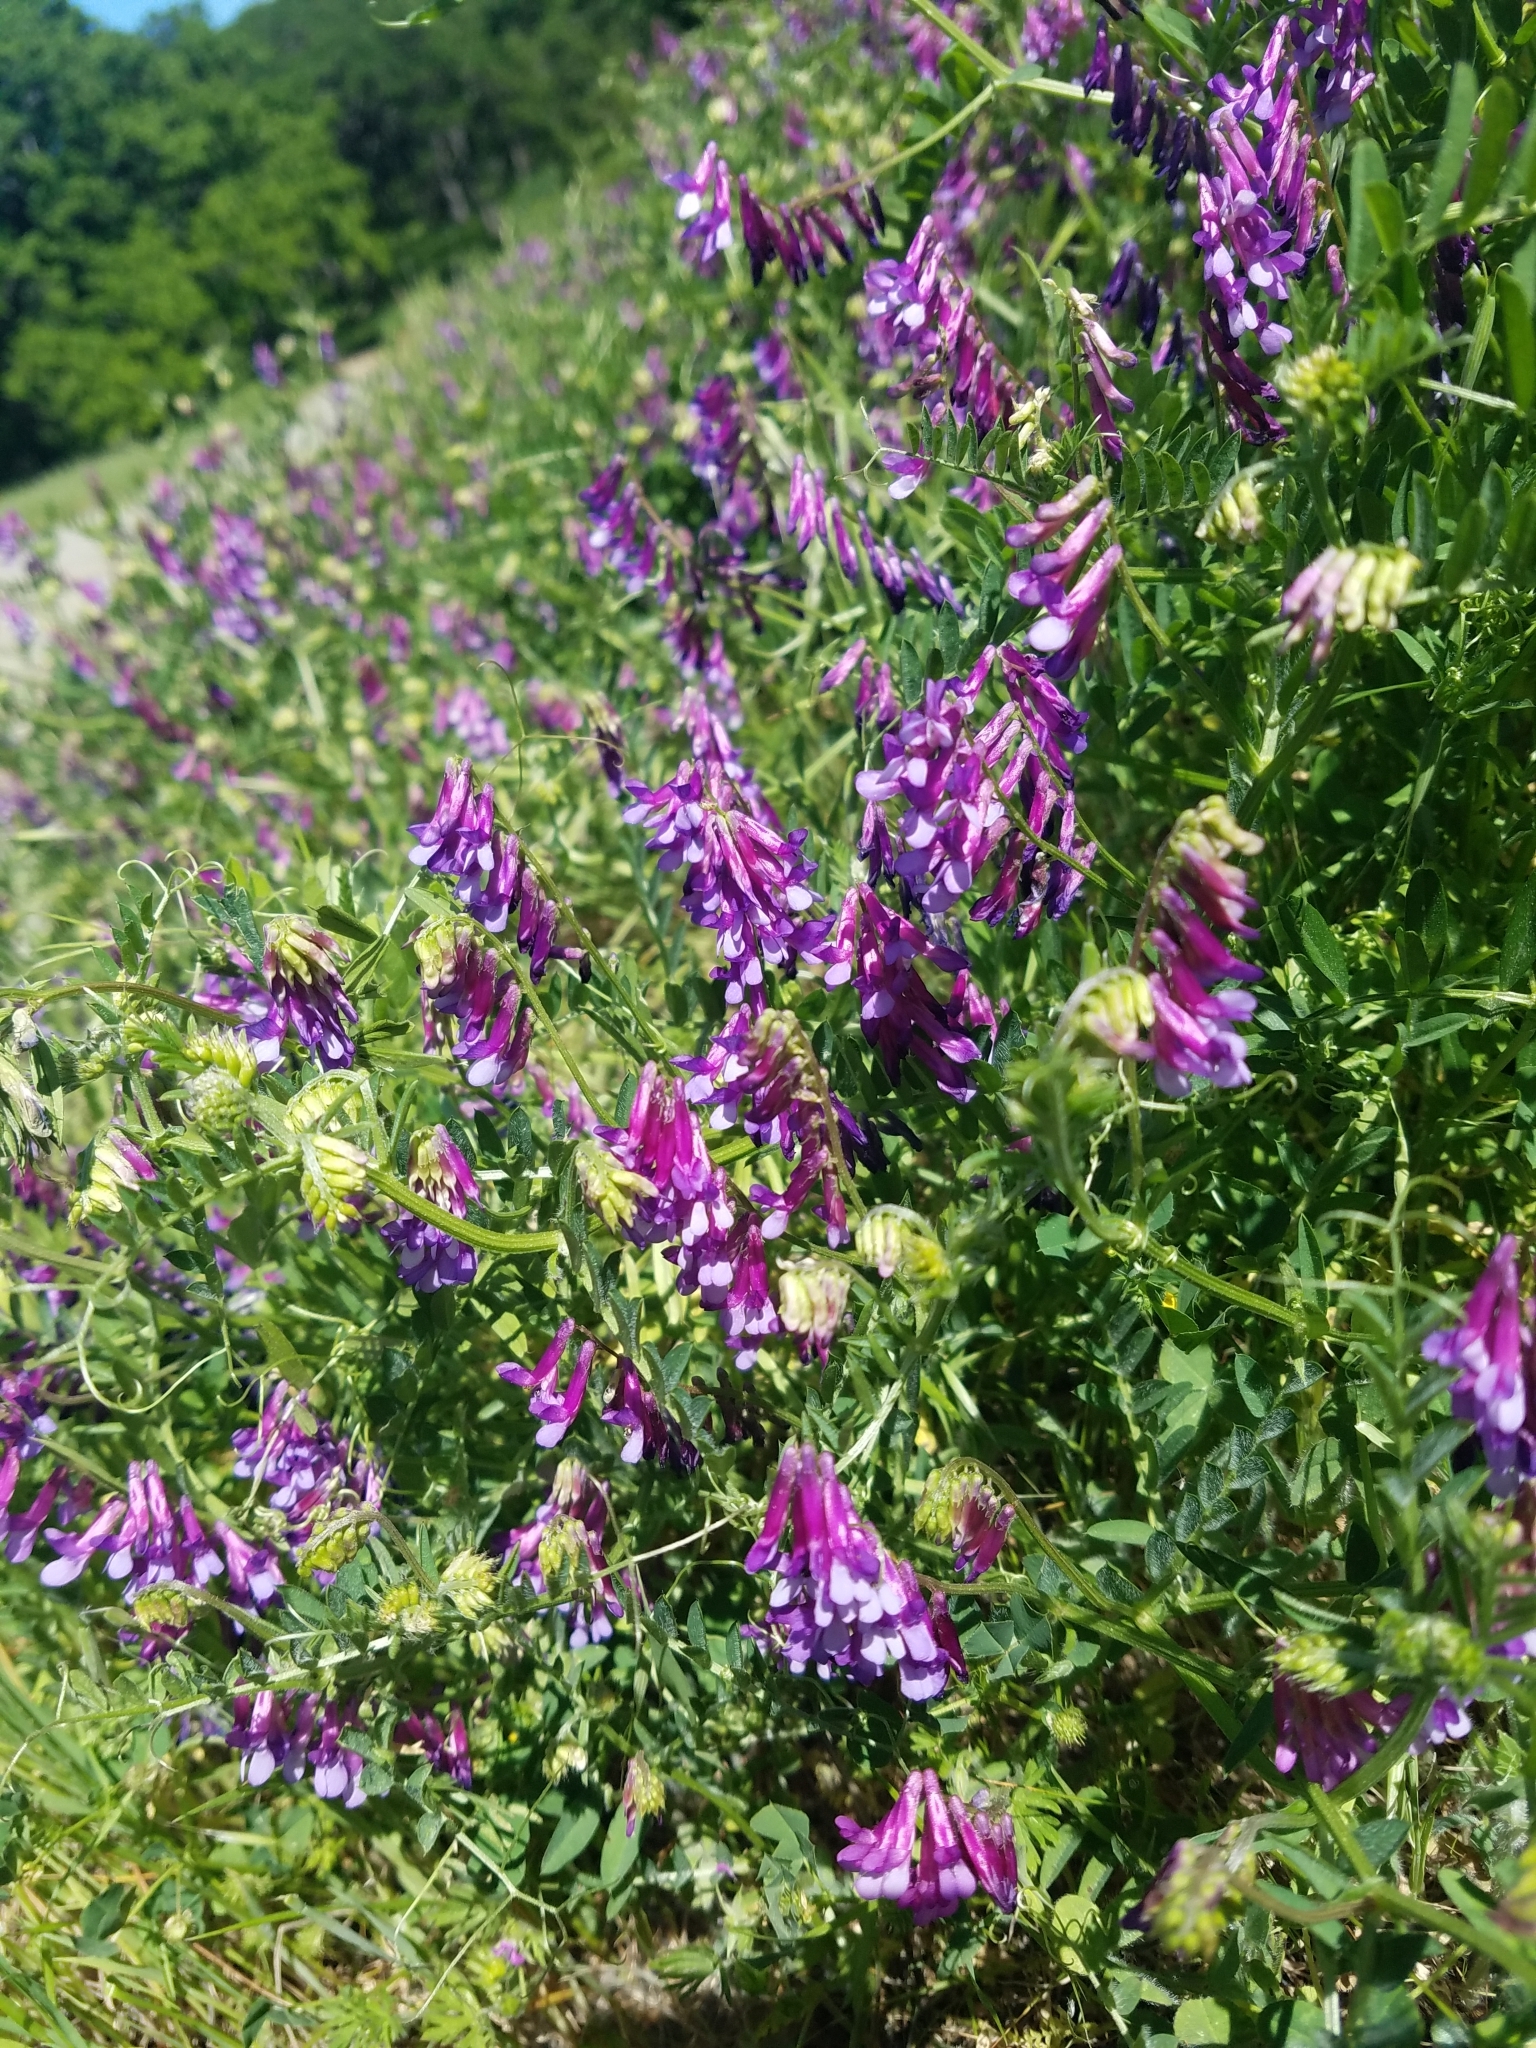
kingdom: Plantae
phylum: Tracheophyta
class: Magnoliopsida
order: Fabales
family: Fabaceae
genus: Vicia
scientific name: Vicia villosa
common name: Fodder vetch
